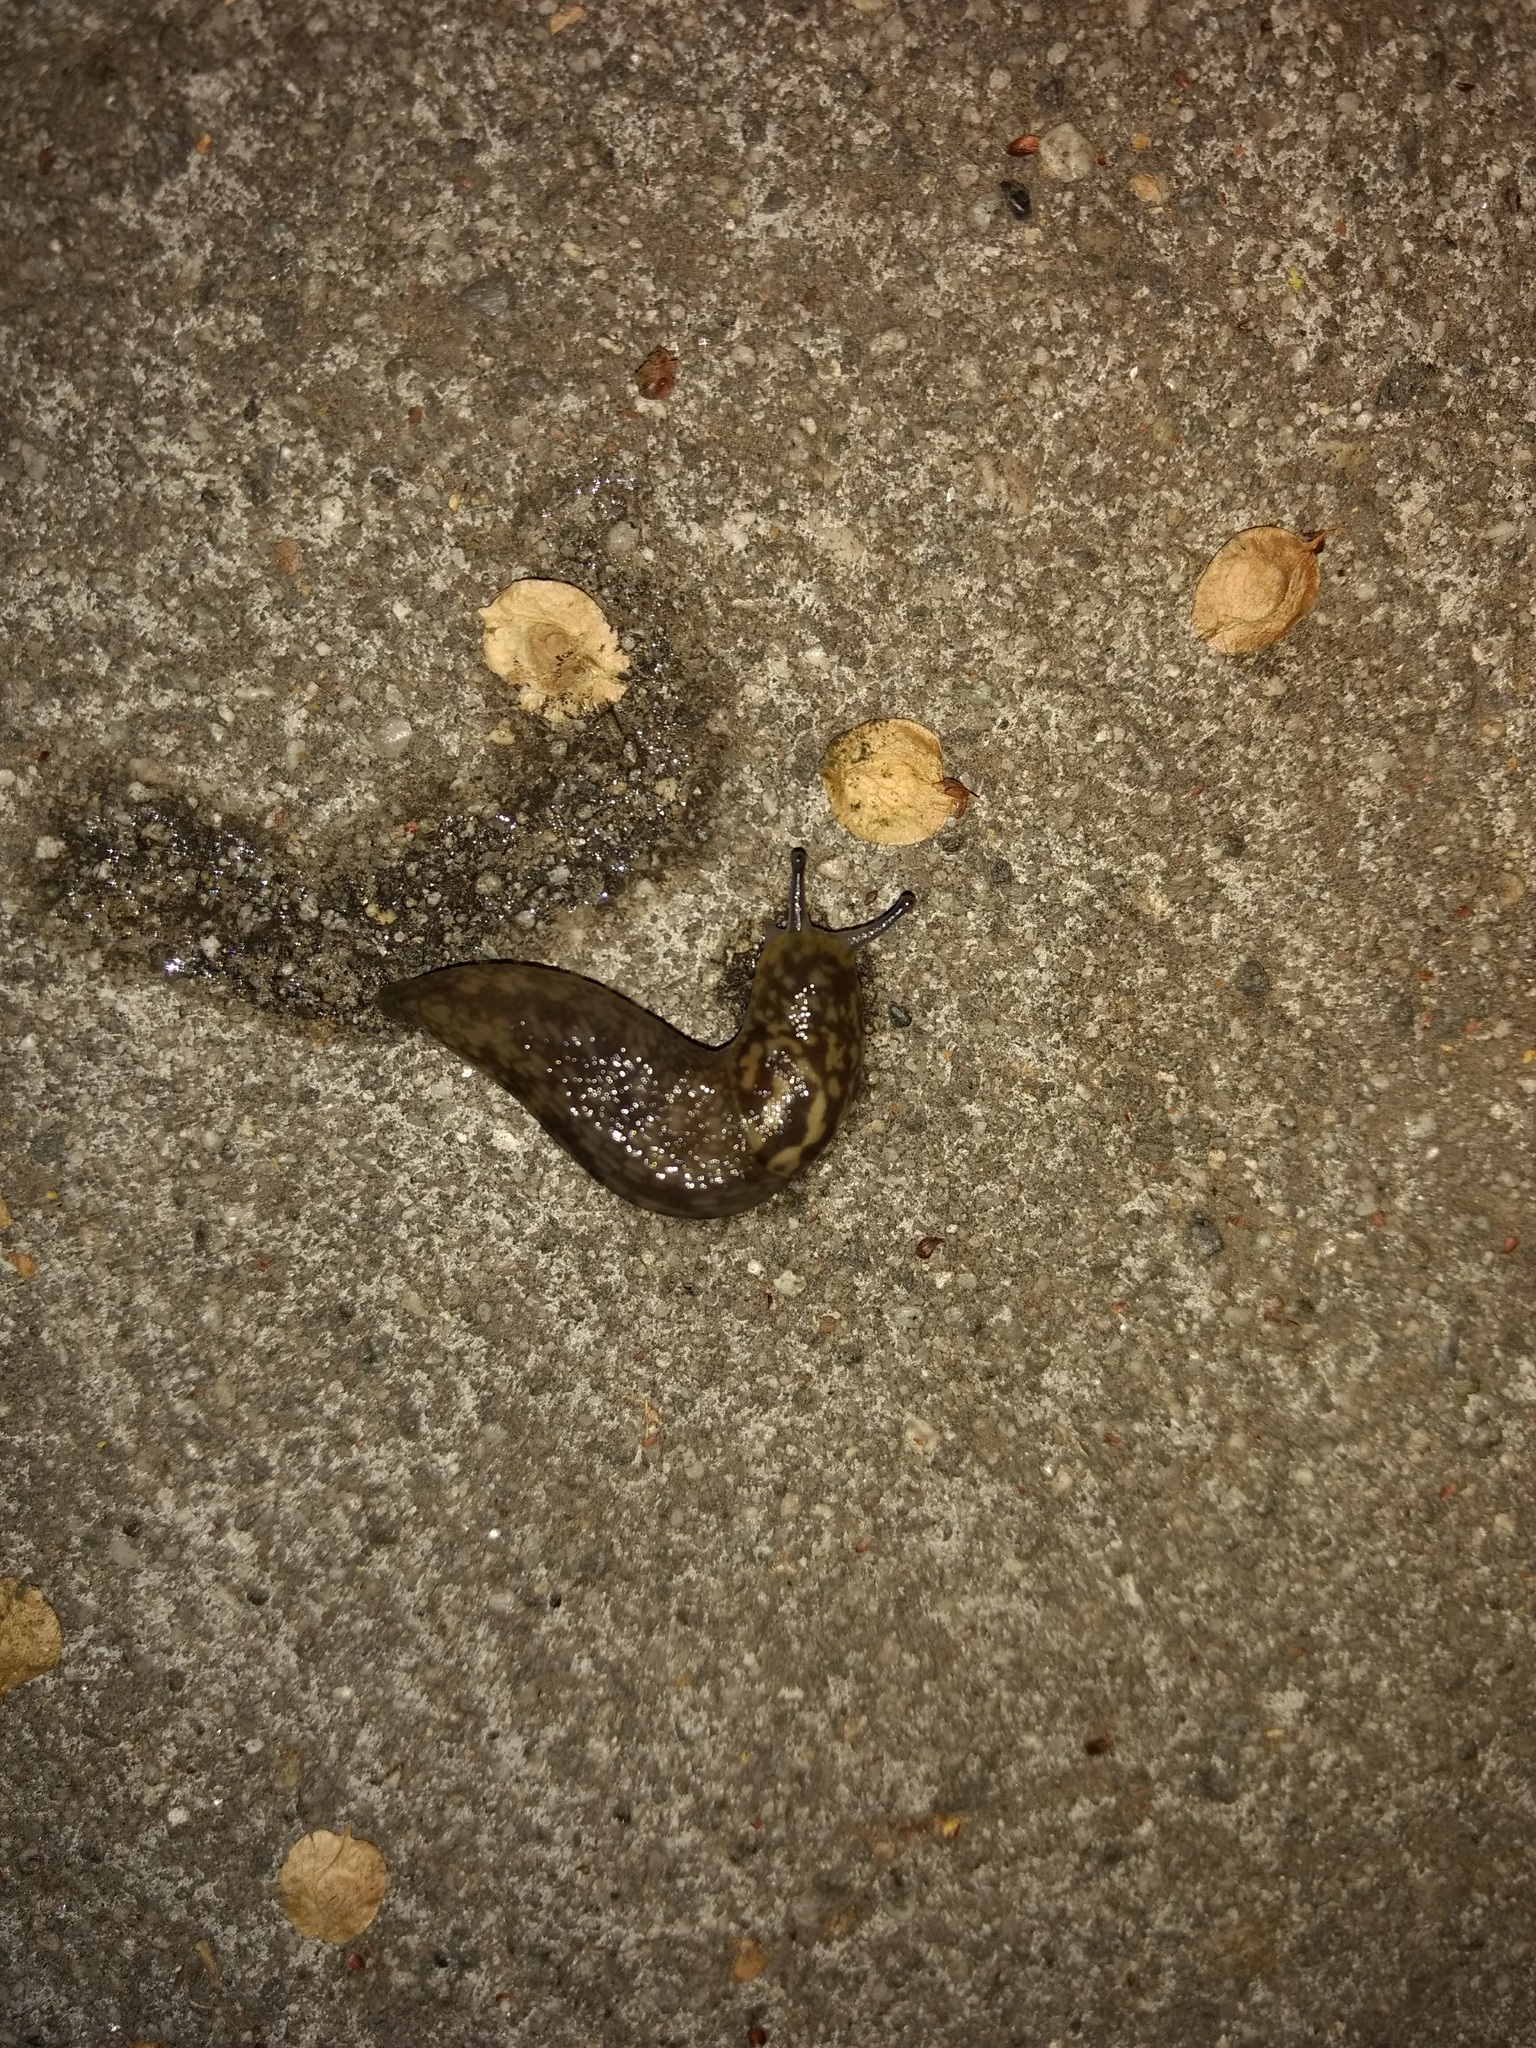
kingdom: Animalia
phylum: Mollusca
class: Gastropoda
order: Stylommatophora
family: Limacidae
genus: Limacus
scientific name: Limacus flavus
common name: Yellow gardenslug
